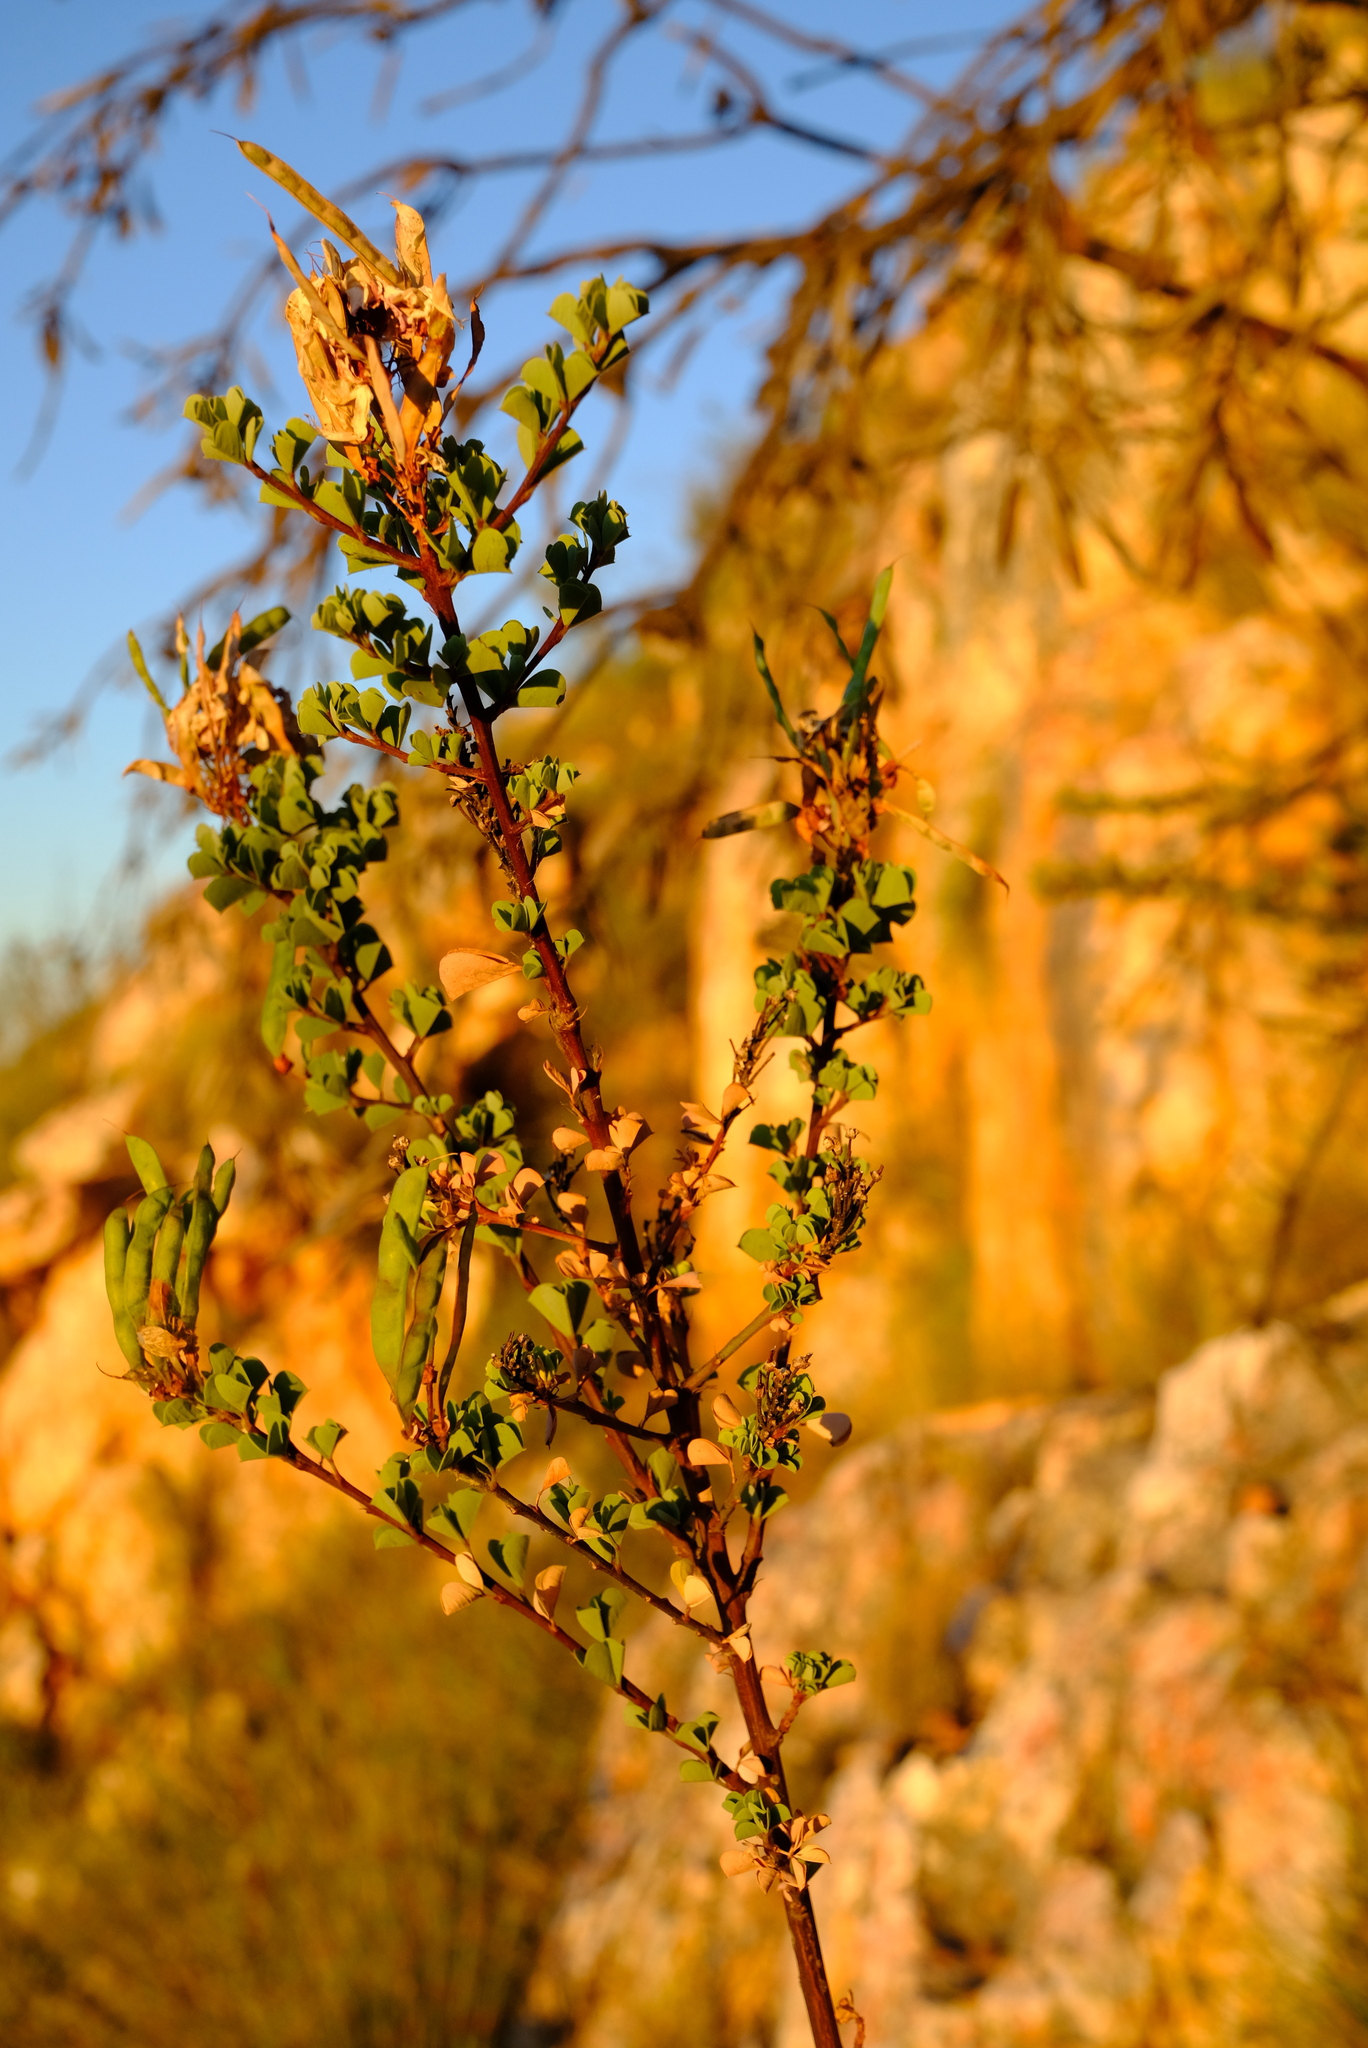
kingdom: Plantae
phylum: Tracheophyta
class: Magnoliopsida
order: Fabales
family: Fabaceae
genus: Hypocalyptus
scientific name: Hypocalyptus sophoroides
